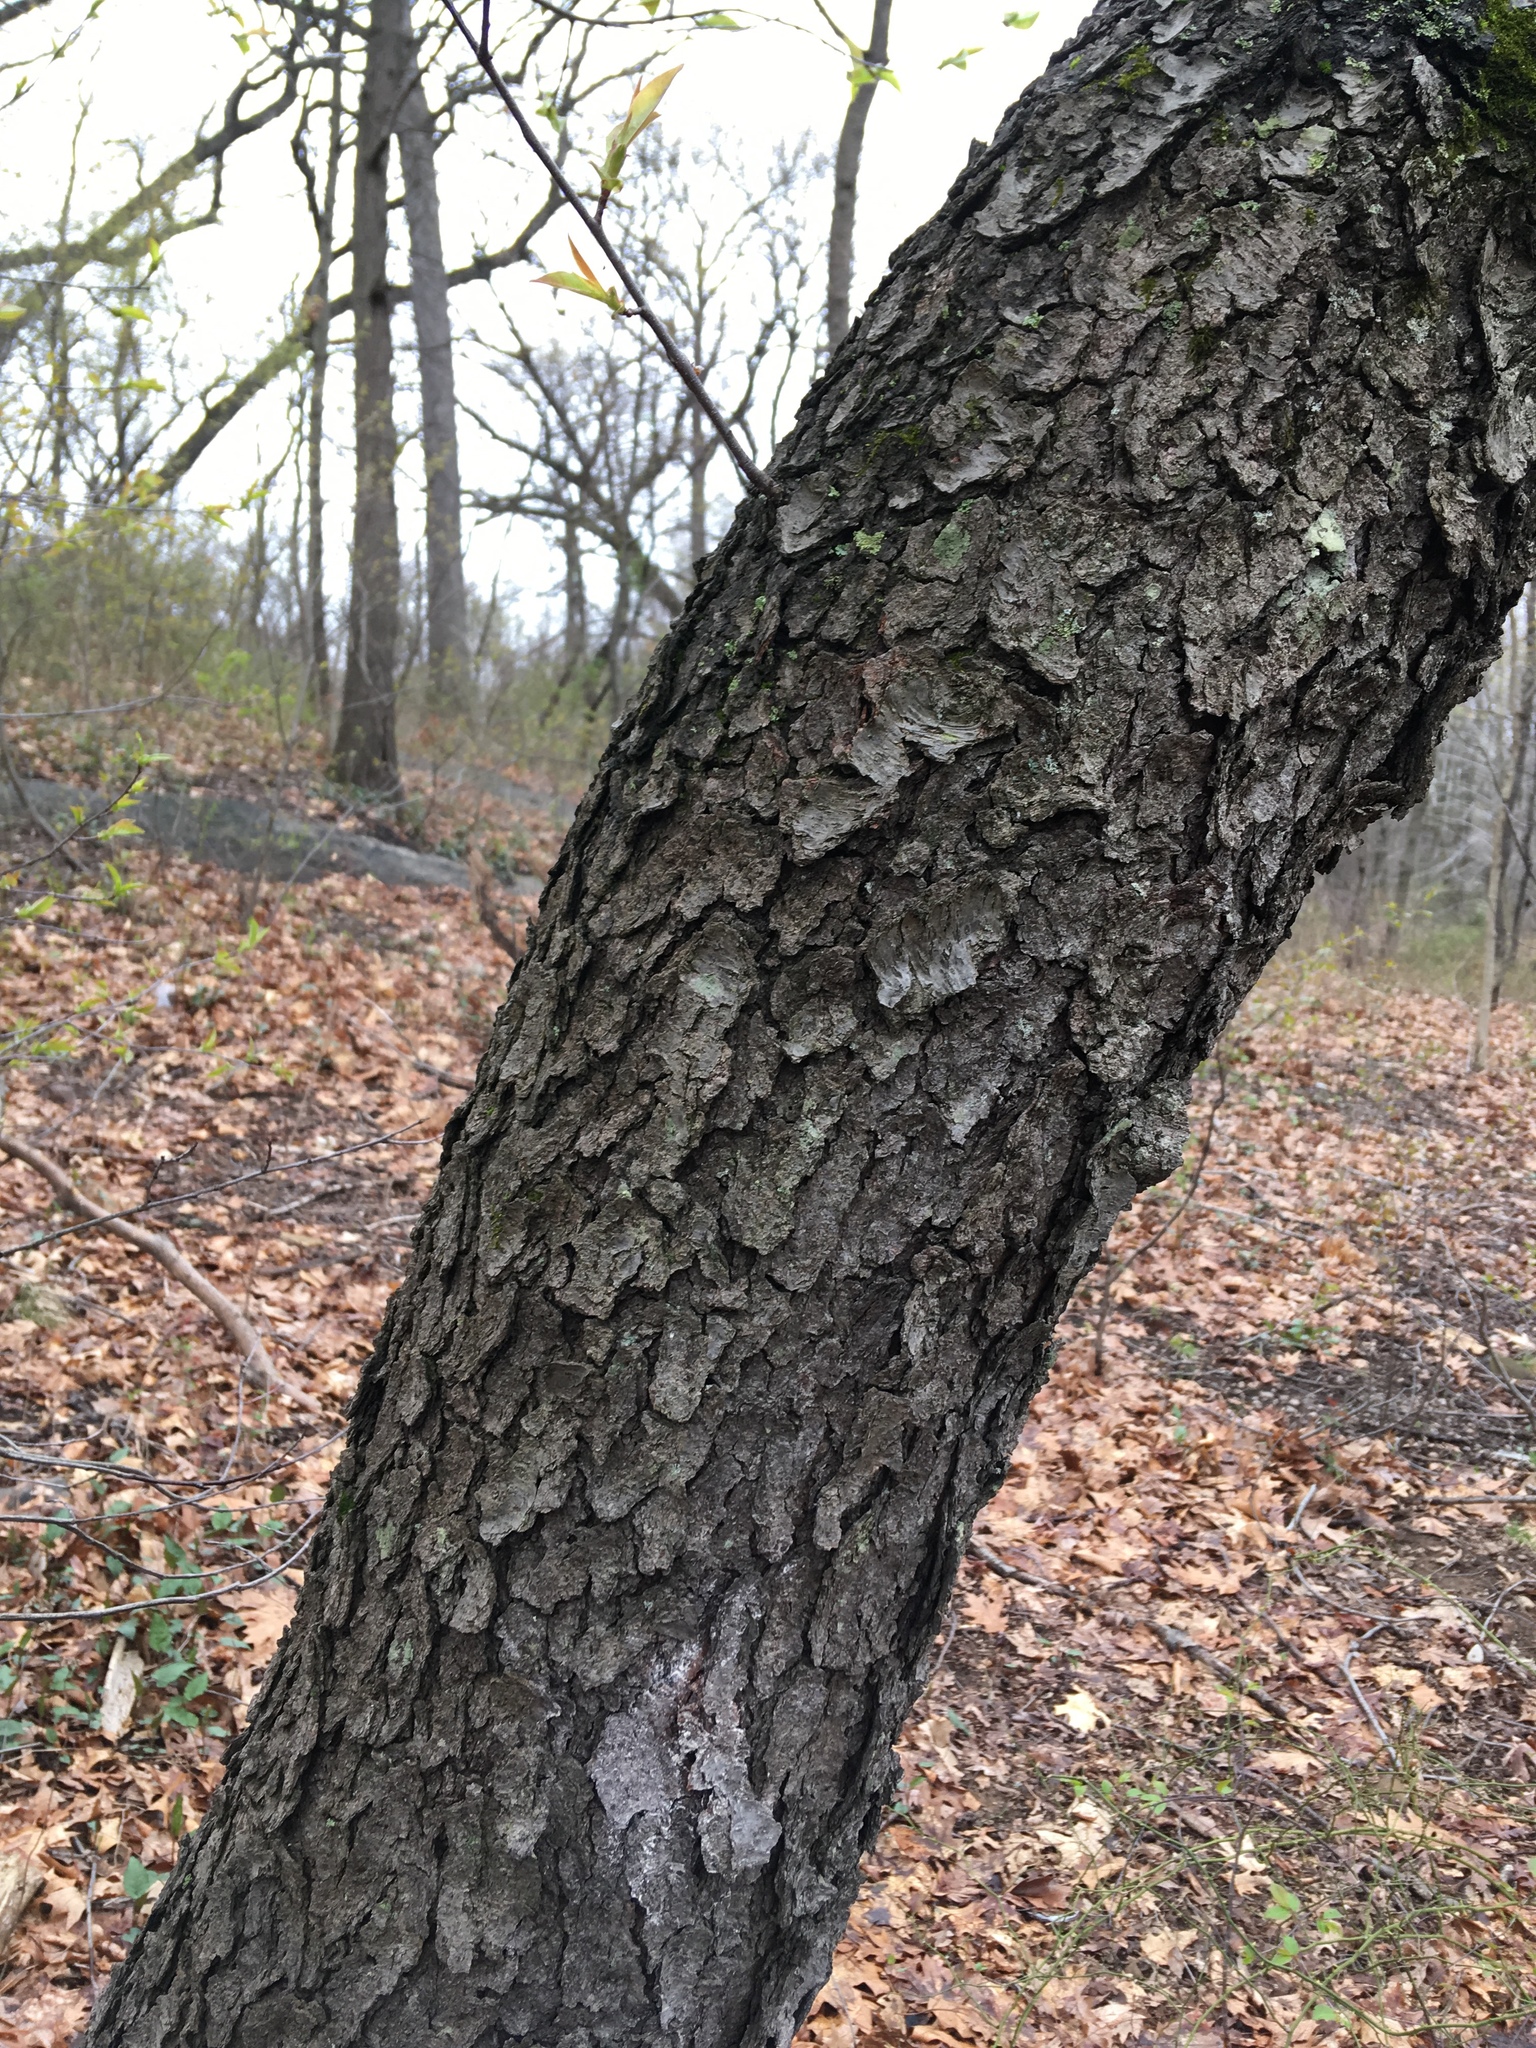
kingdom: Plantae
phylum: Tracheophyta
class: Magnoliopsida
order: Rosales
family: Rosaceae
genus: Prunus
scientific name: Prunus serotina
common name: Black cherry
